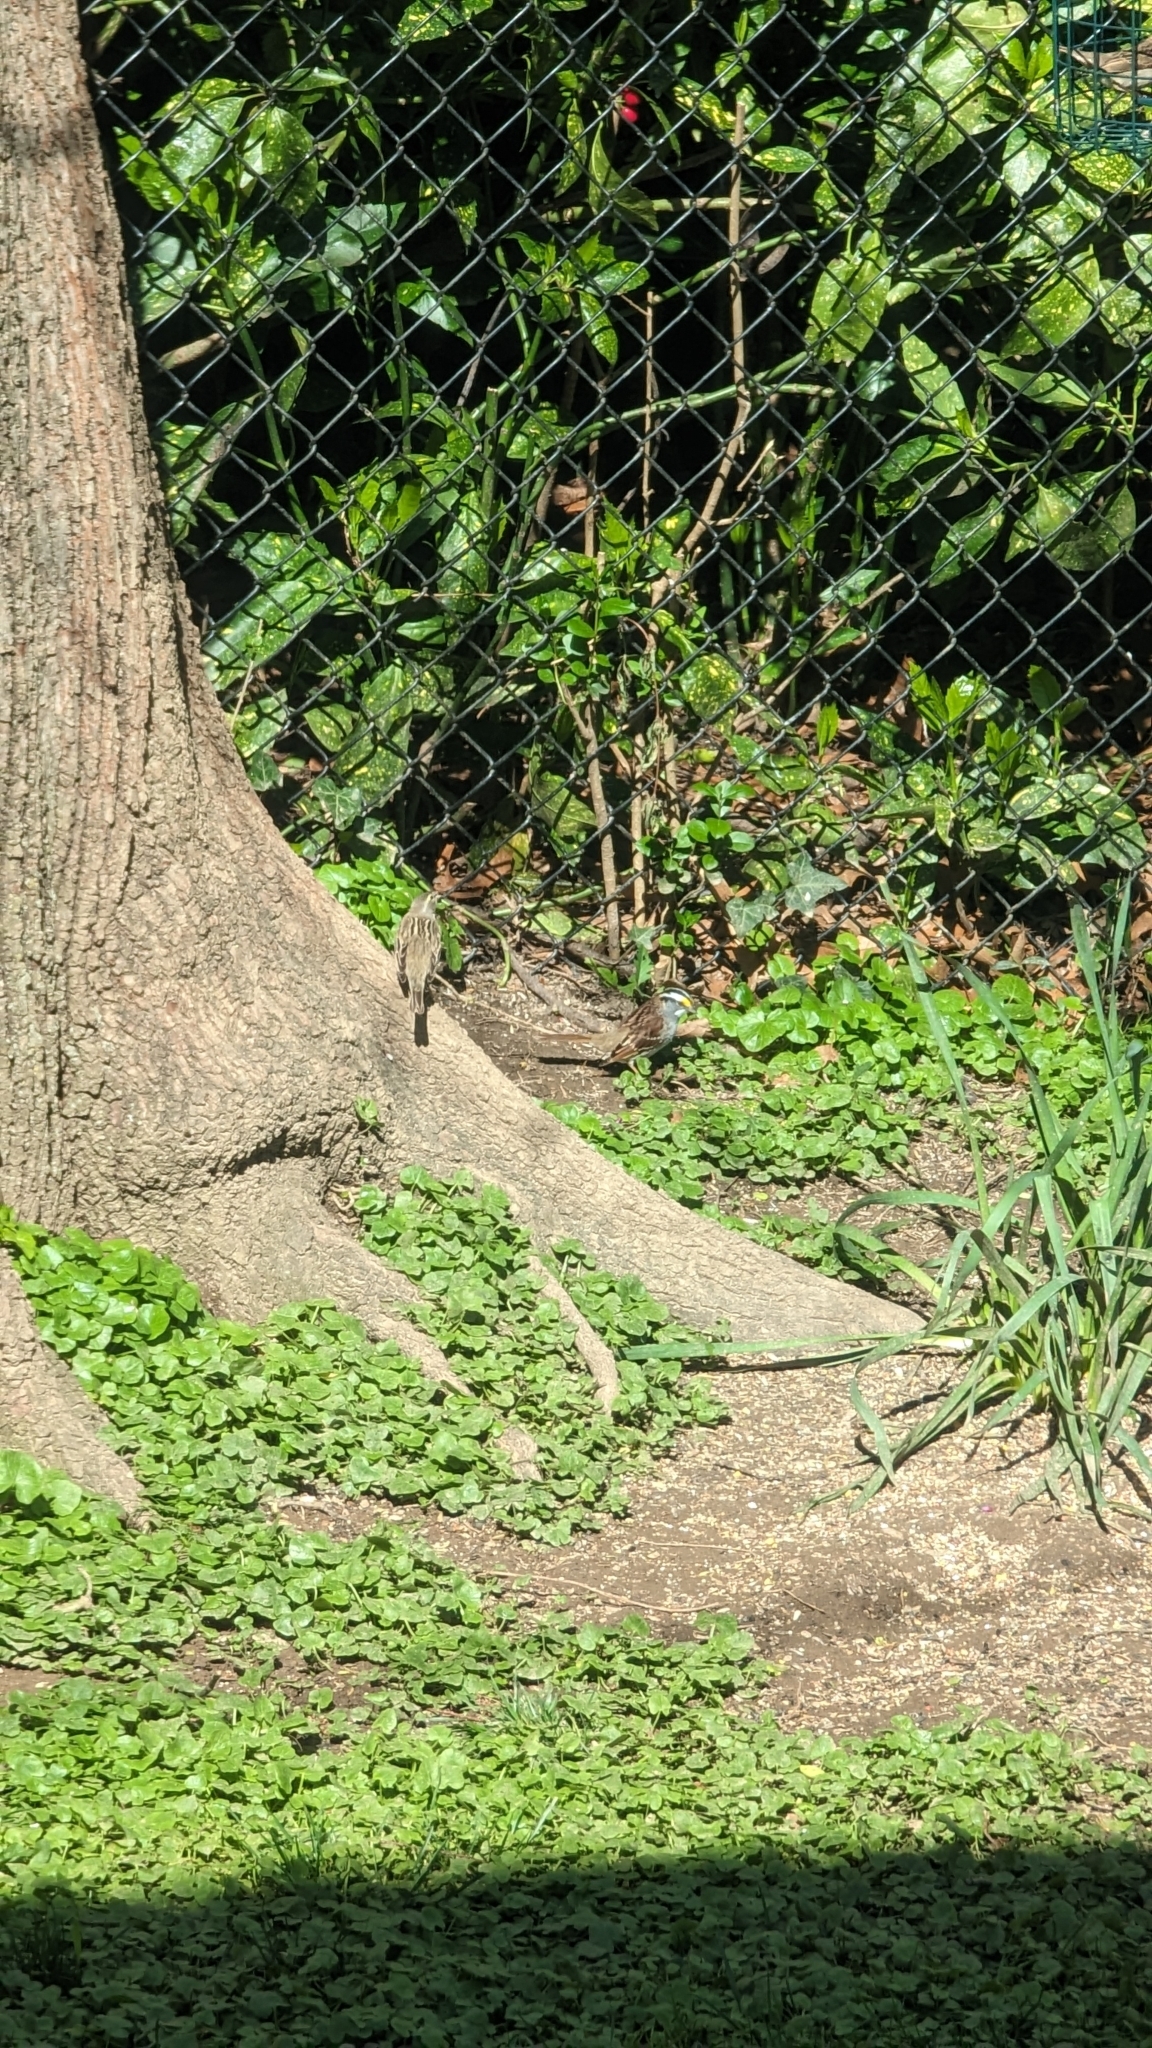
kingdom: Animalia
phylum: Chordata
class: Aves
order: Passeriformes
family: Cardinalidae
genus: Spiza
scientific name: Spiza americana
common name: Dickcissel
